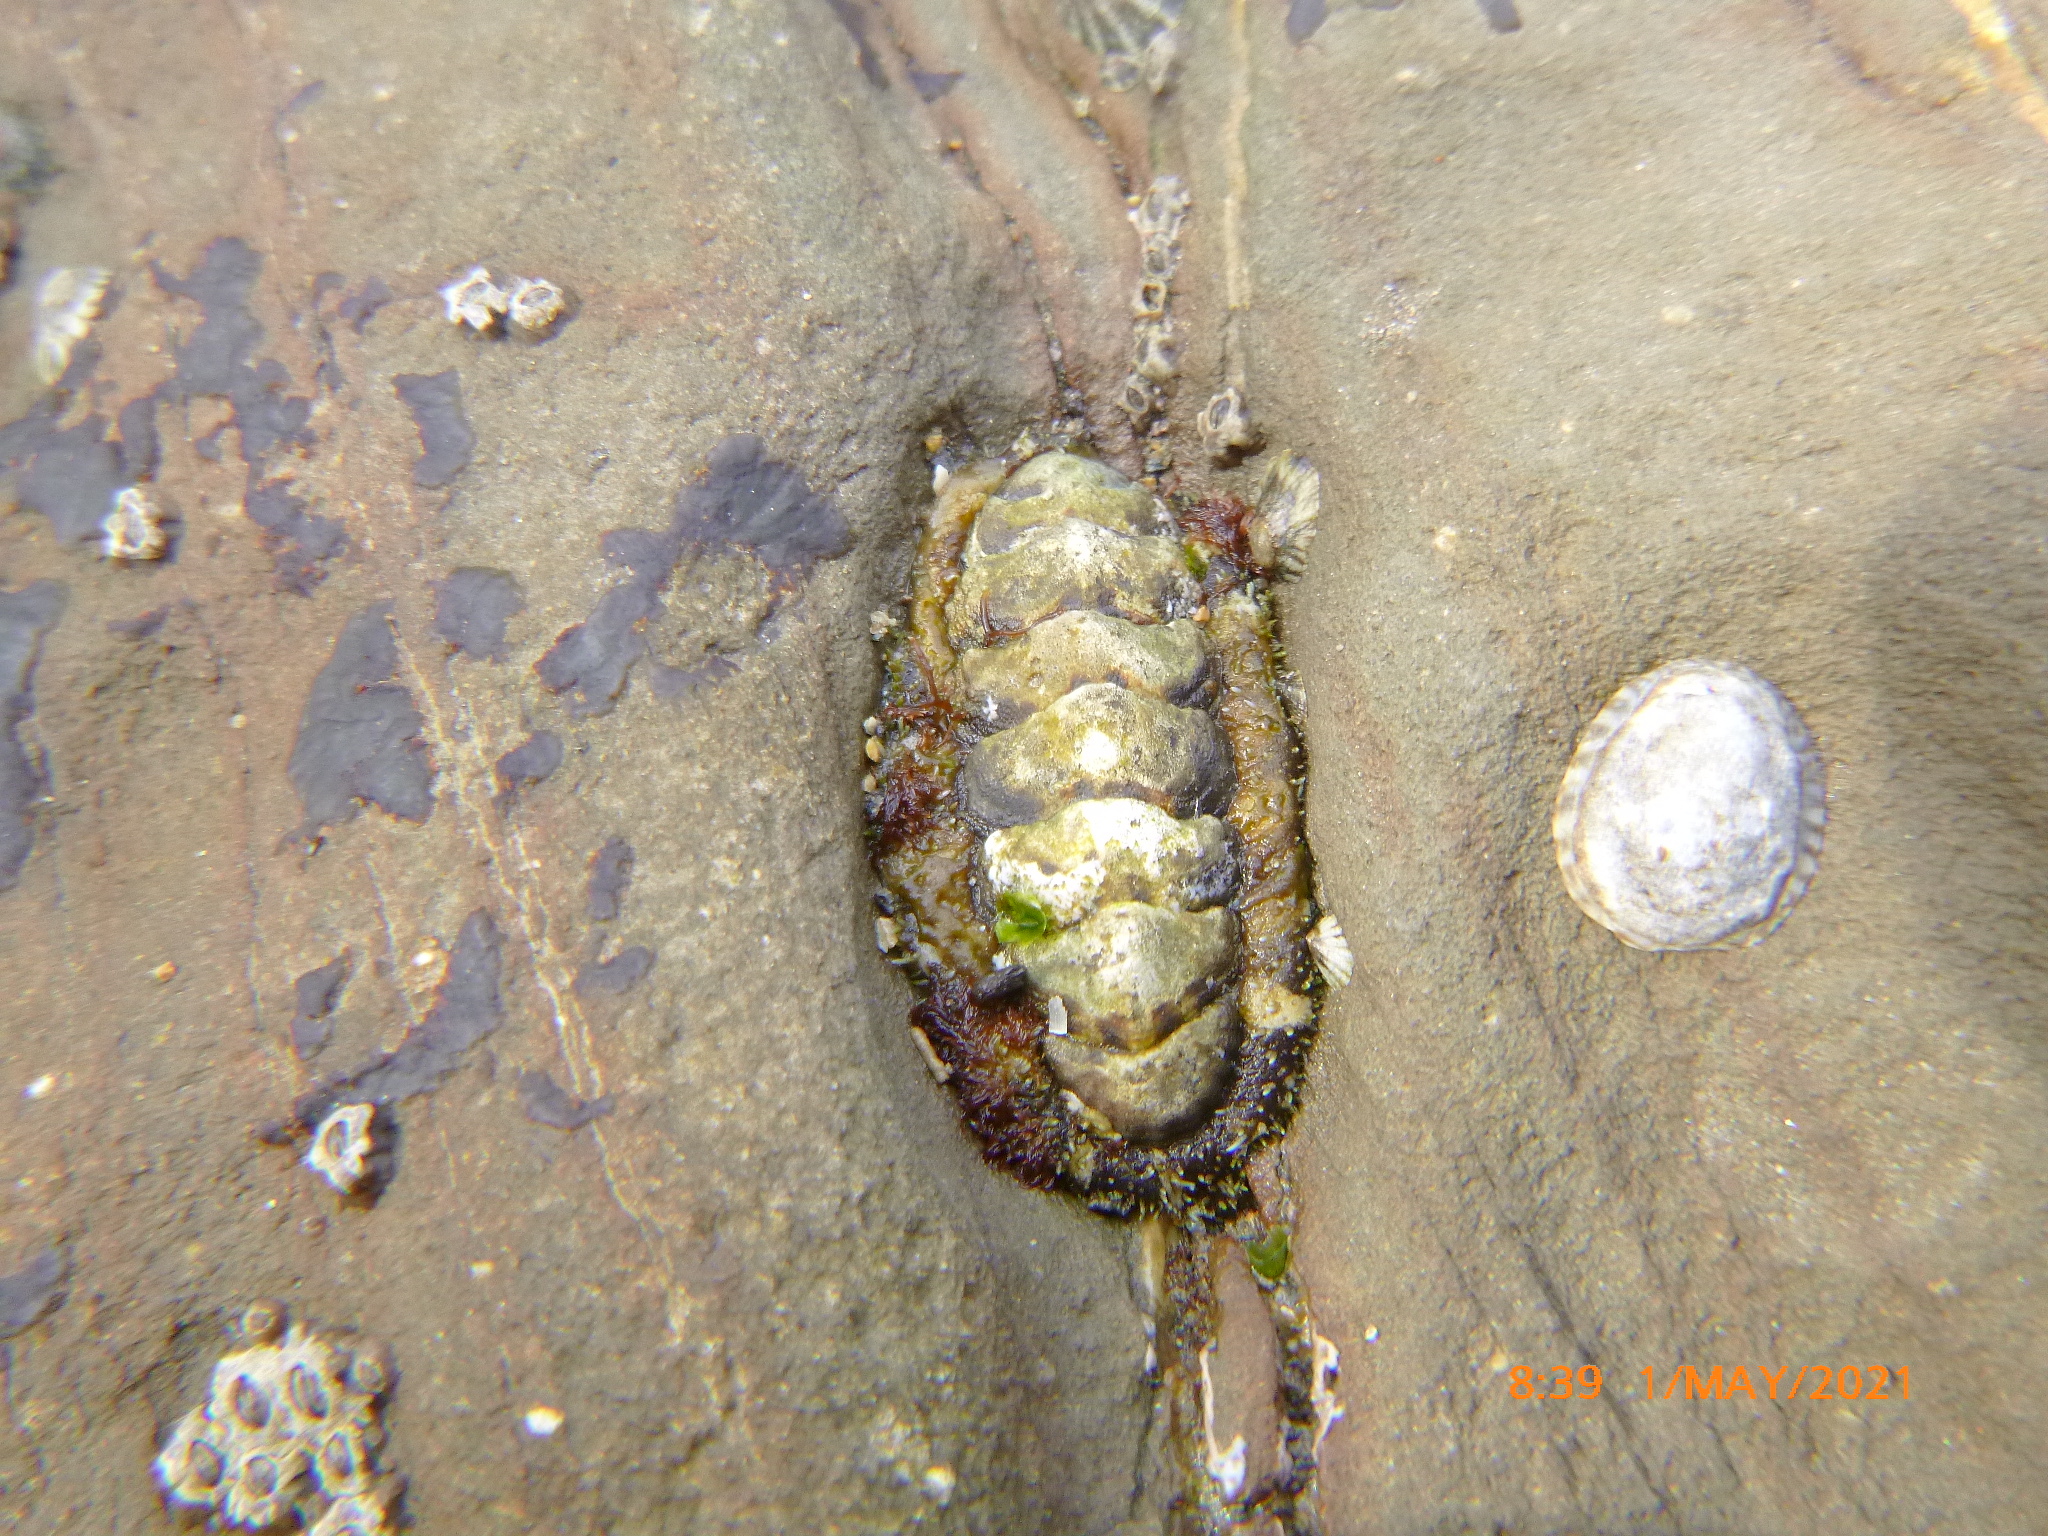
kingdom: Animalia
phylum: Mollusca
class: Polyplacophora
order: Chitonida
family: Tonicellidae
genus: Nuttallina
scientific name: Nuttallina californica
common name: California nuttall chiton
